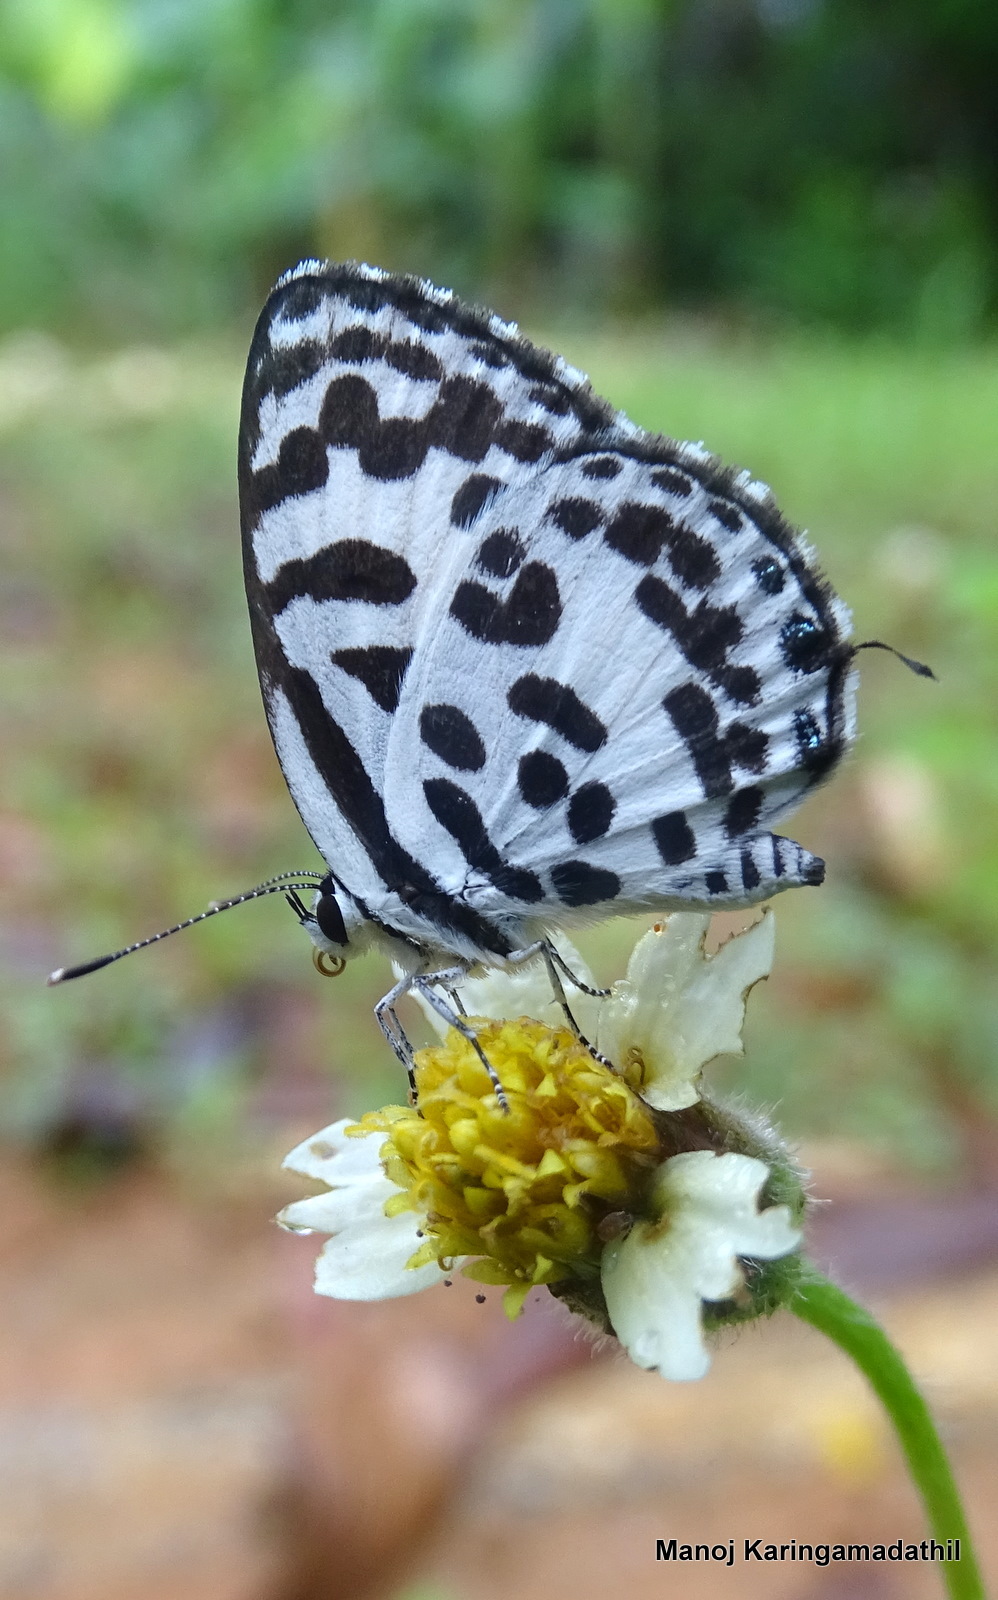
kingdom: Animalia
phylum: Arthropoda
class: Insecta
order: Lepidoptera
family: Lycaenidae
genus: Castalius
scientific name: Castalius rosimon
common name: Common pierrot
